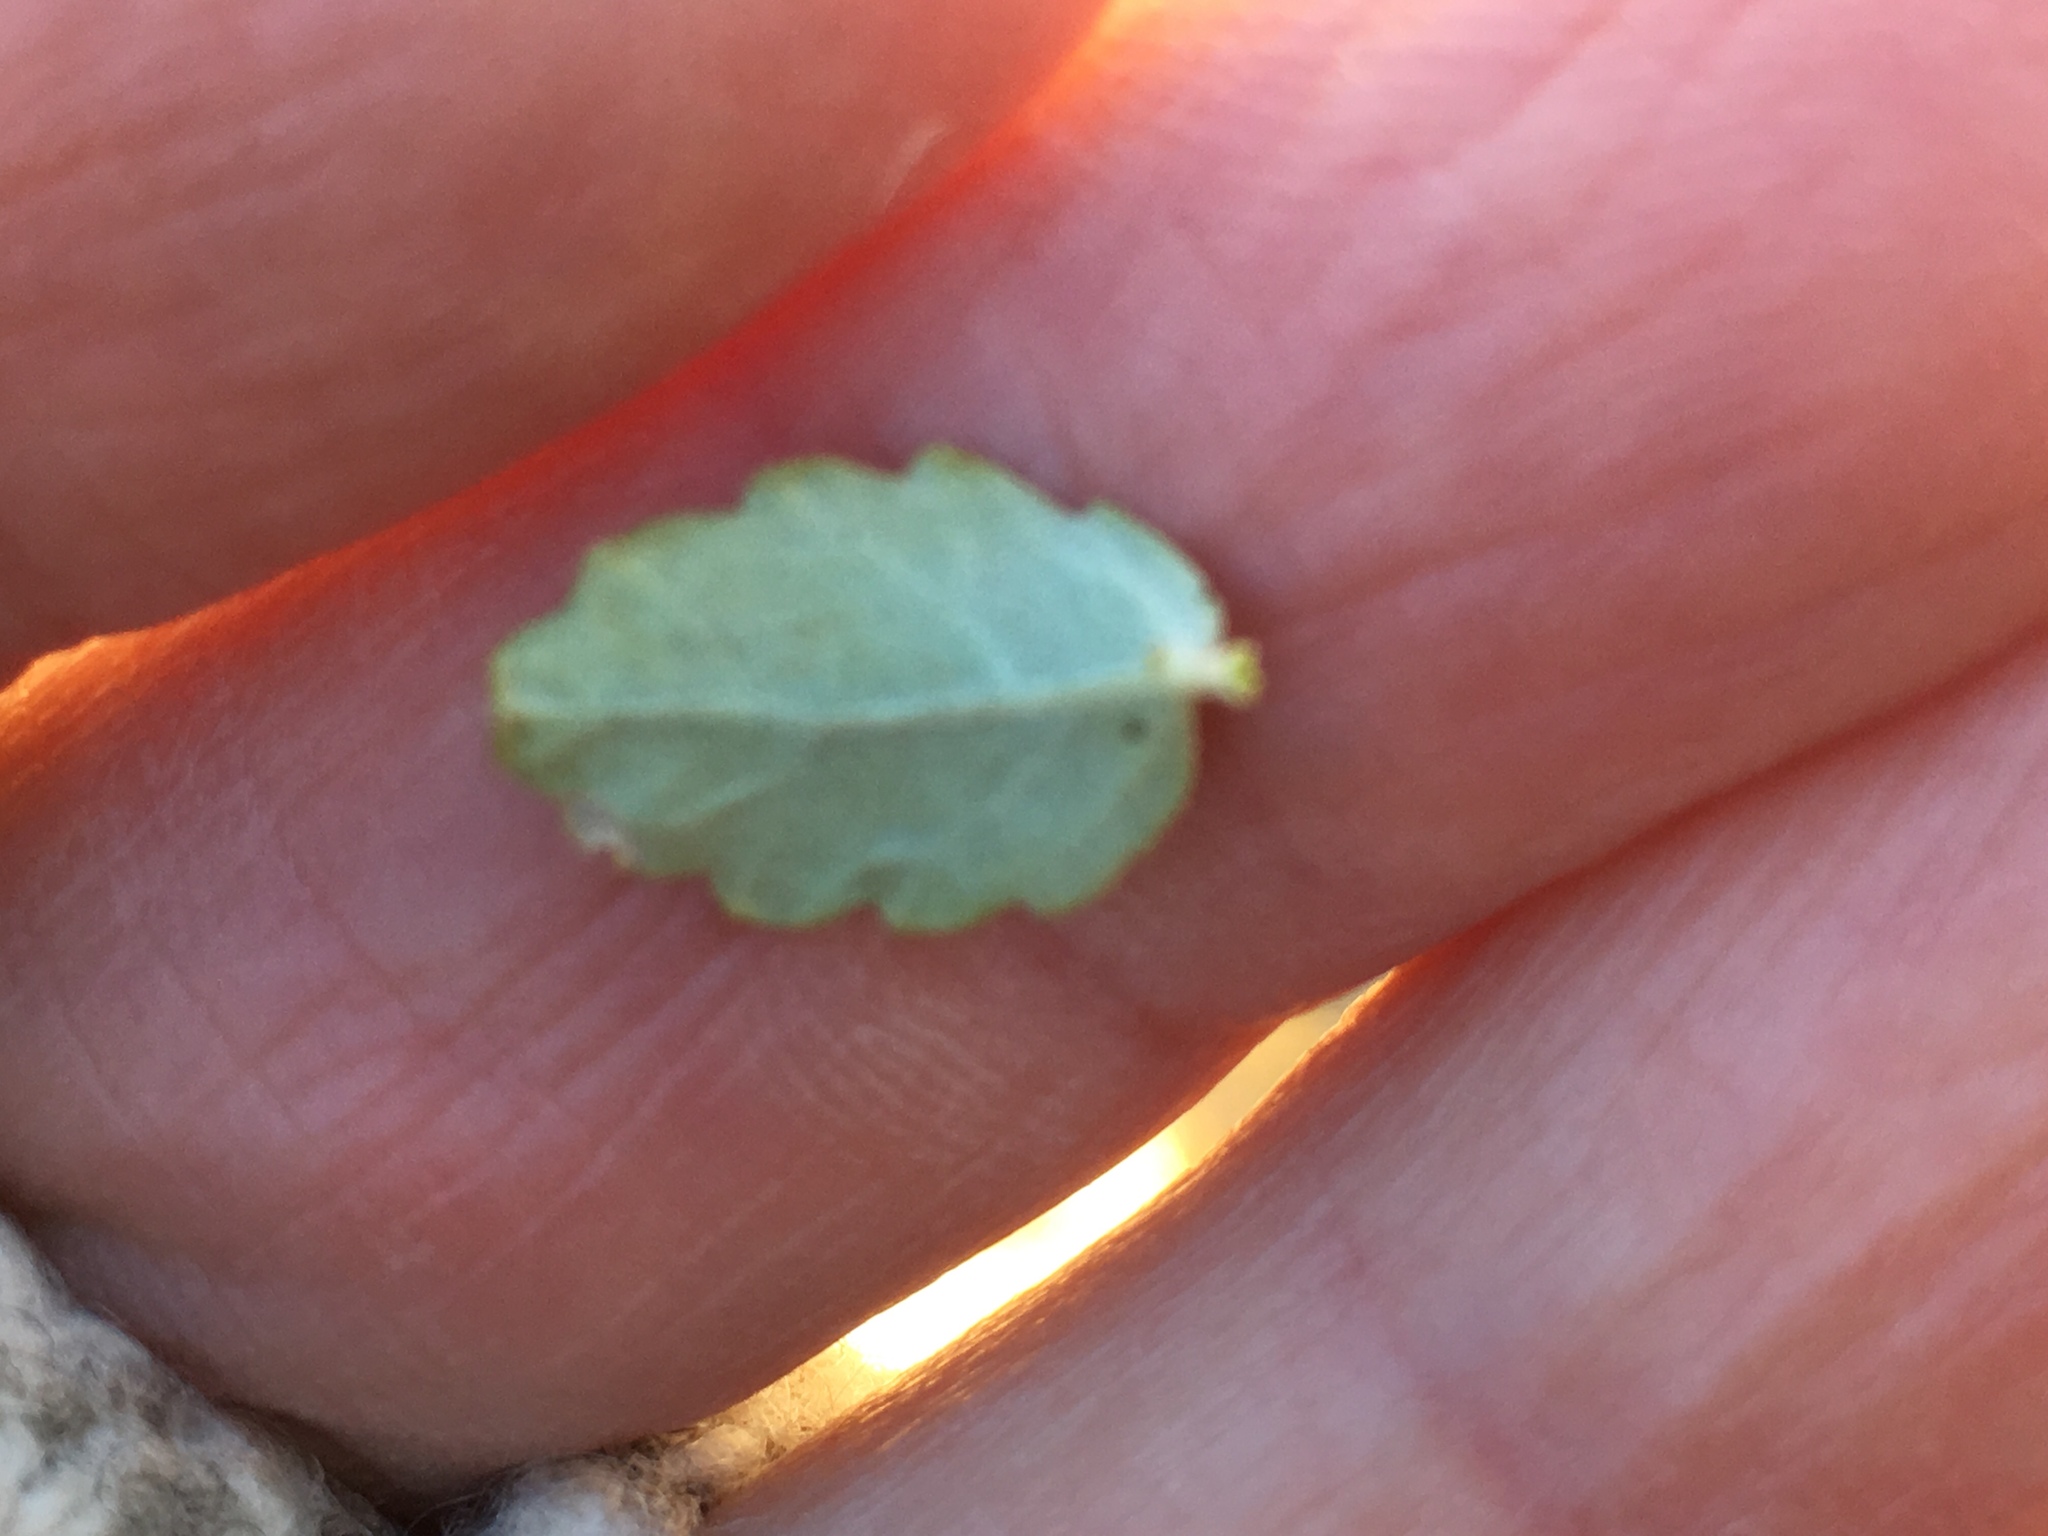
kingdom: Plantae
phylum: Tracheophyta
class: Magnoliopsida
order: Malpighiales
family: Euphorbiaceae
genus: Bernardia
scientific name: Bernardia incana
